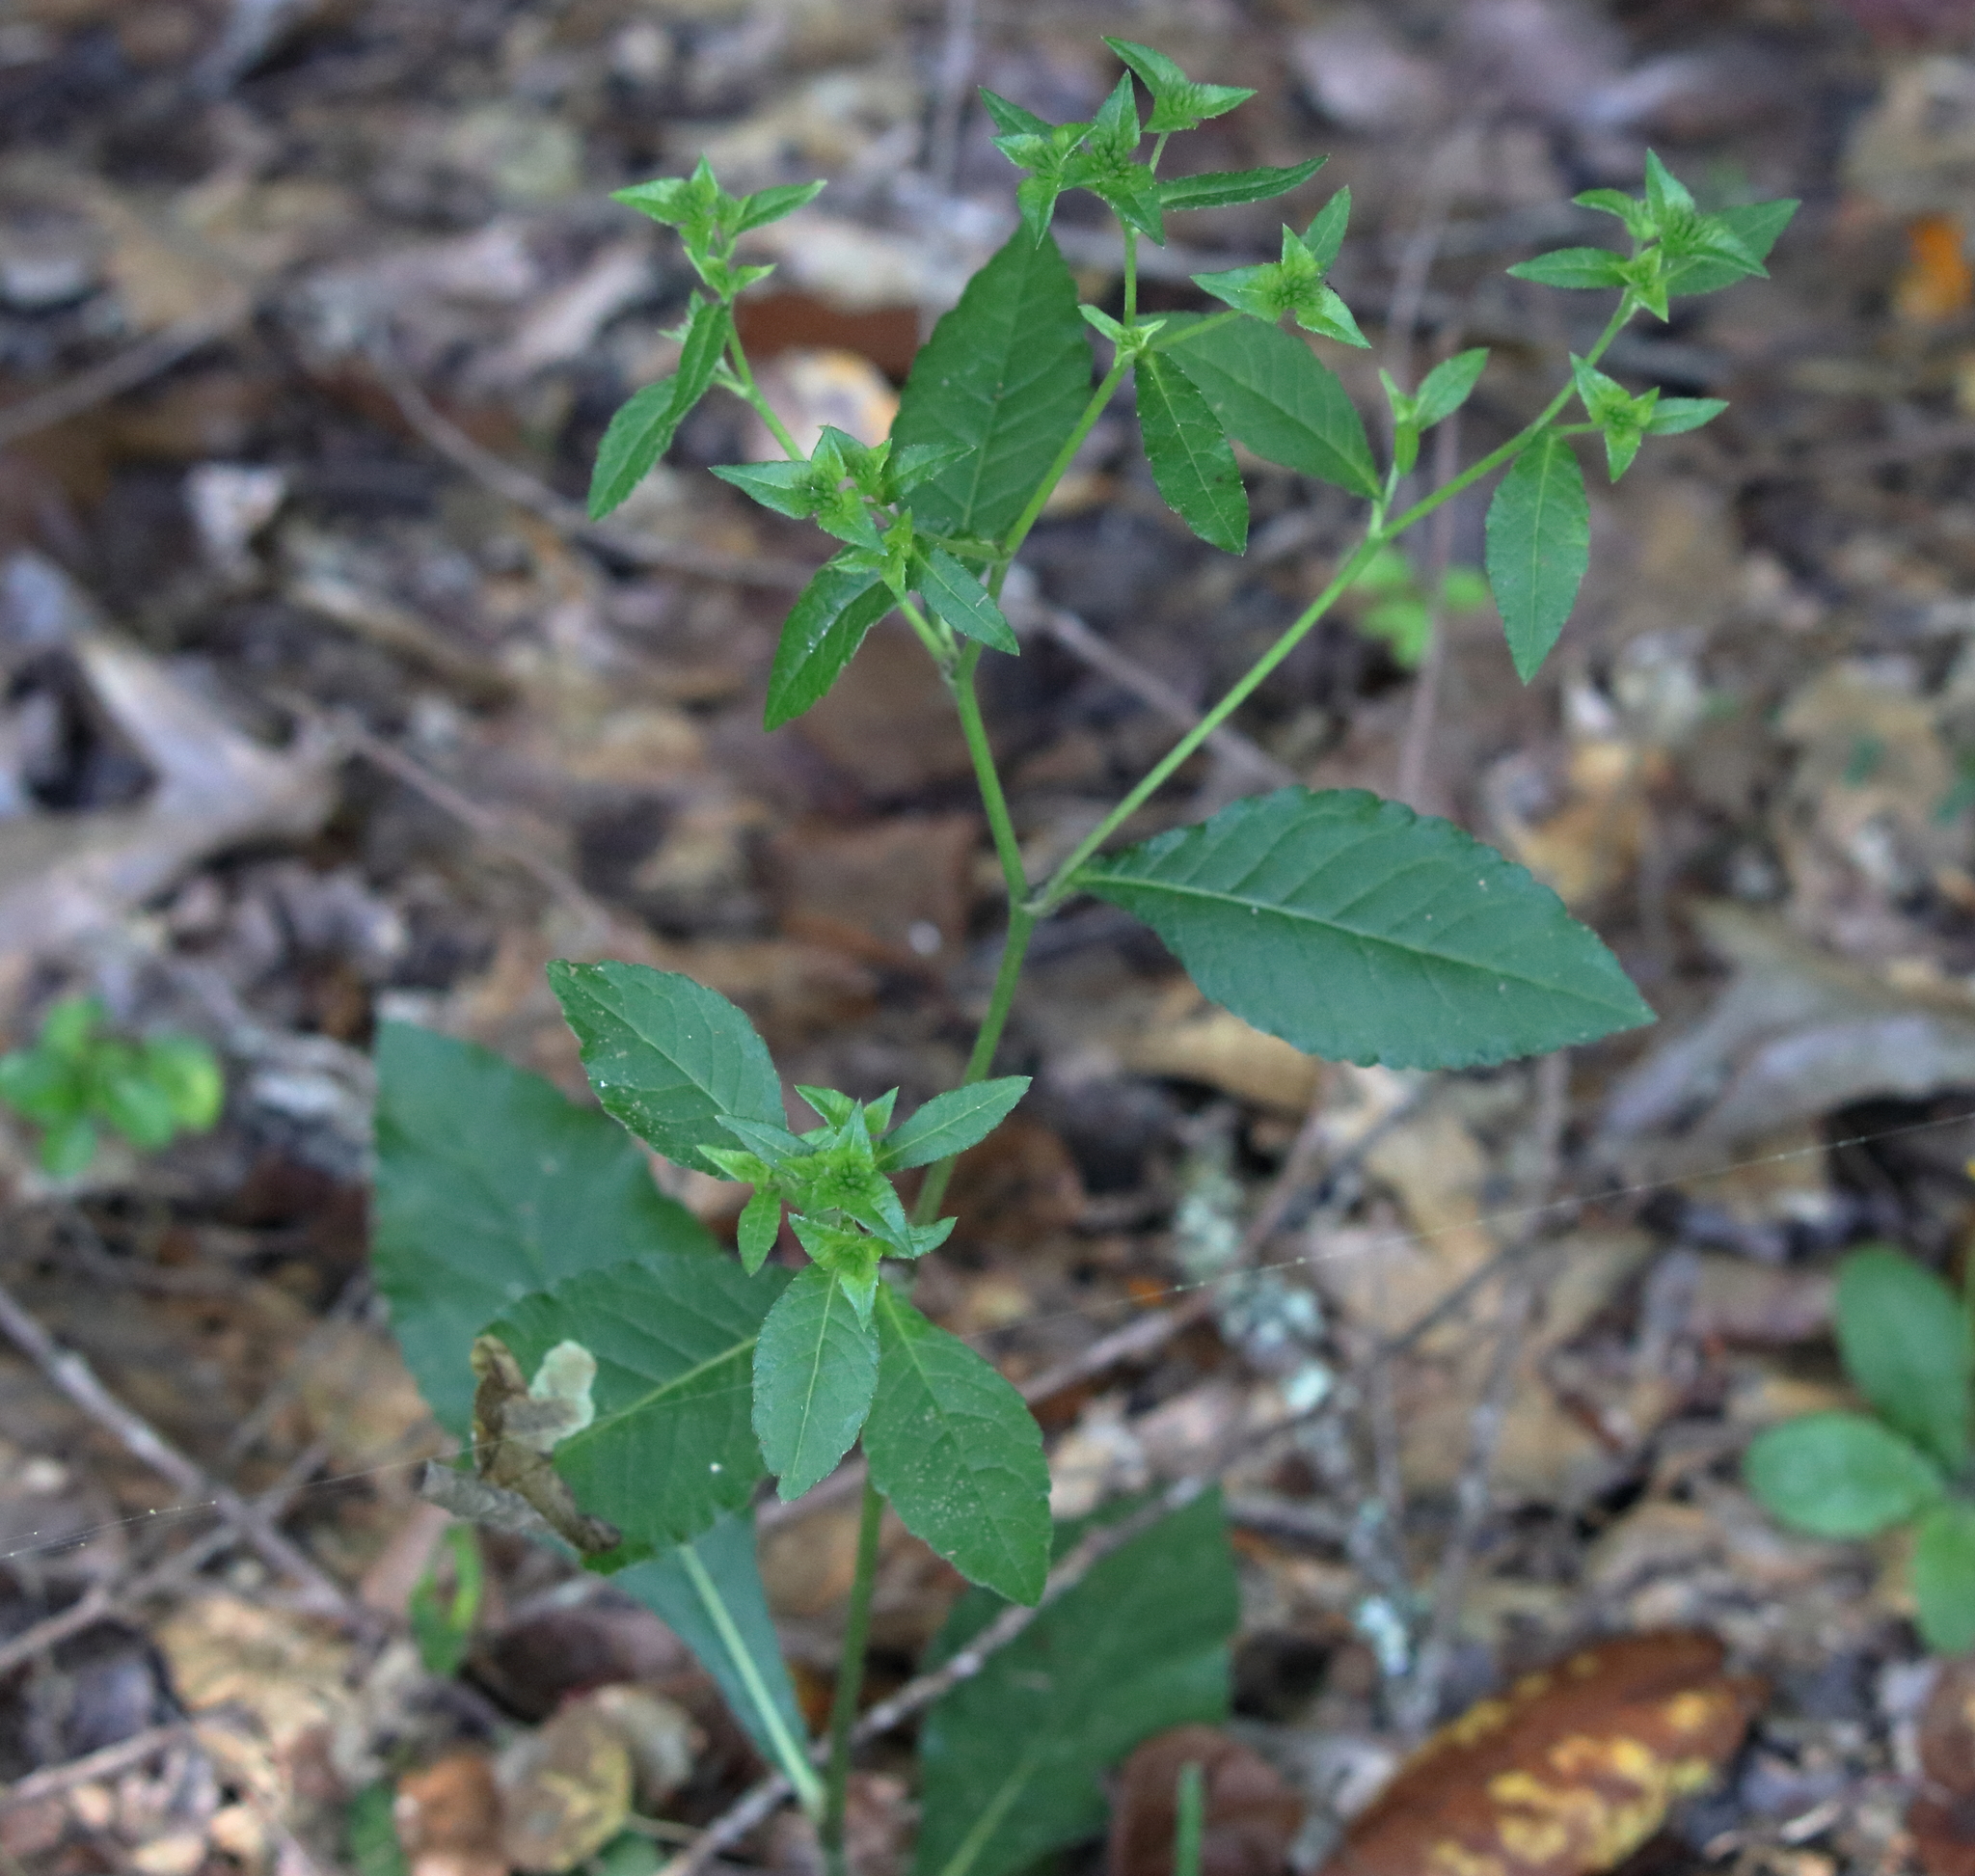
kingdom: Plantae
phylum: Tracheophyta
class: Magnoliopsida
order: Asterales
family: Asteraceae
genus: Elephantopus
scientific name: Elephantopus carolinianus
